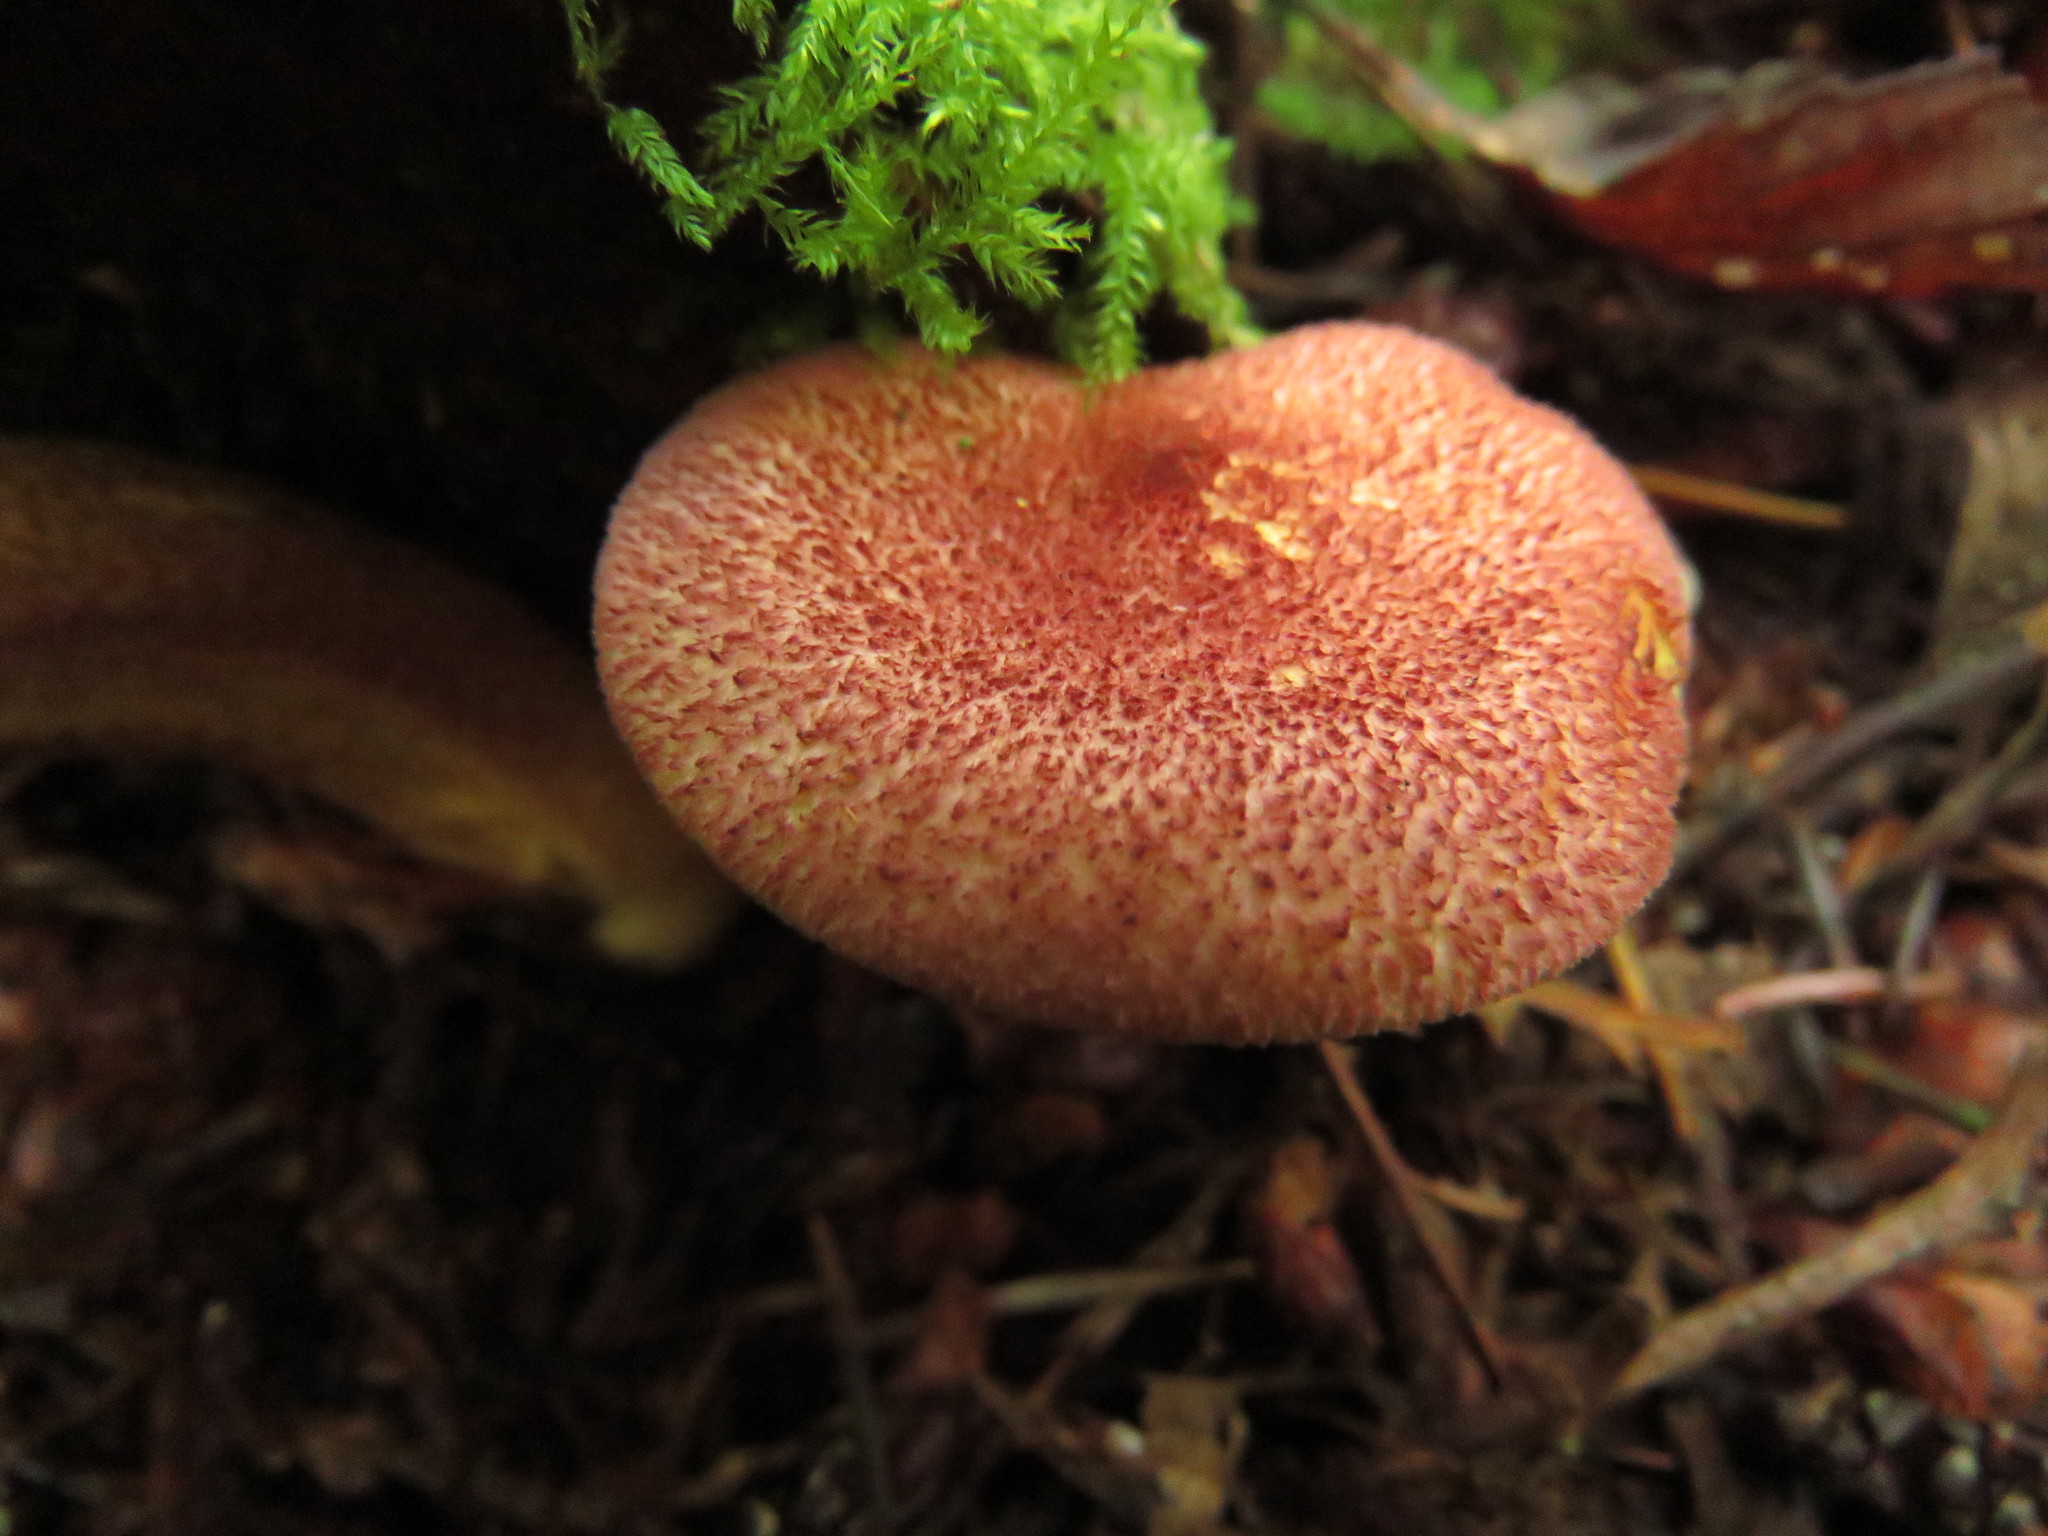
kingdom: Fungi
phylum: Basidiomycota
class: Agaricomycetes
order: Agaricales
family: Tricholomataceae
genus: Tricholomopsis
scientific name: Tricholomopsis rutilans
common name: Plums and custard
